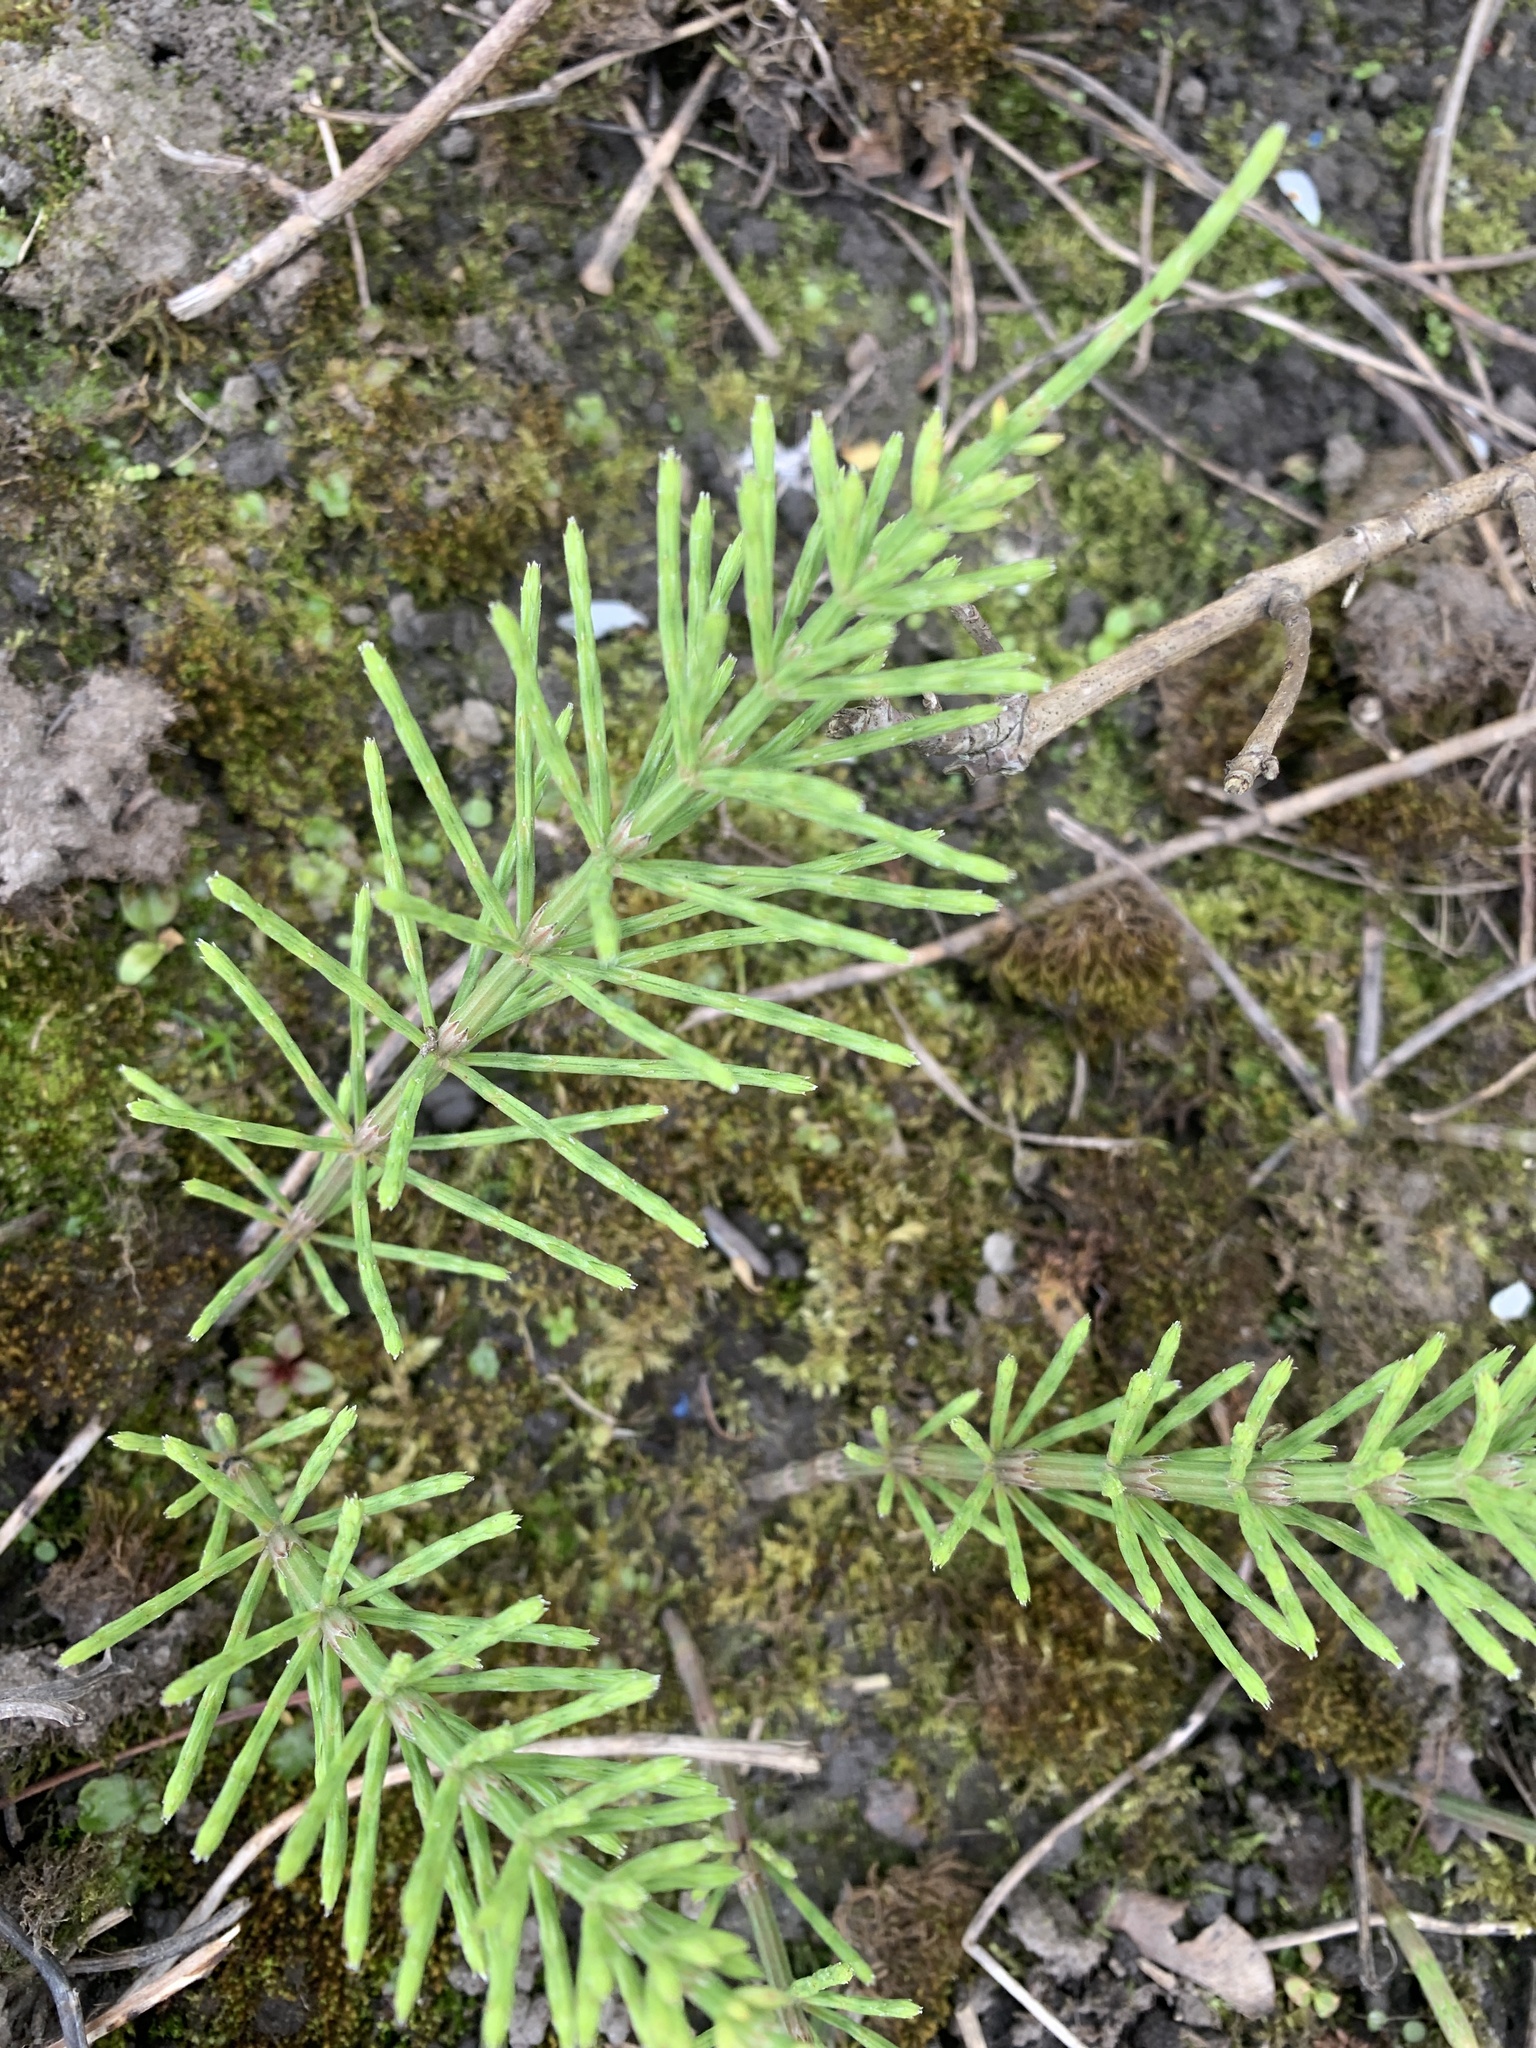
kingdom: Plantae
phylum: Tracheophyta
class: Polypodiopsida
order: Equisetales
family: Equisetaceae
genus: Equisetum
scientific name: Equisetum arvense
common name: Field horsetail
